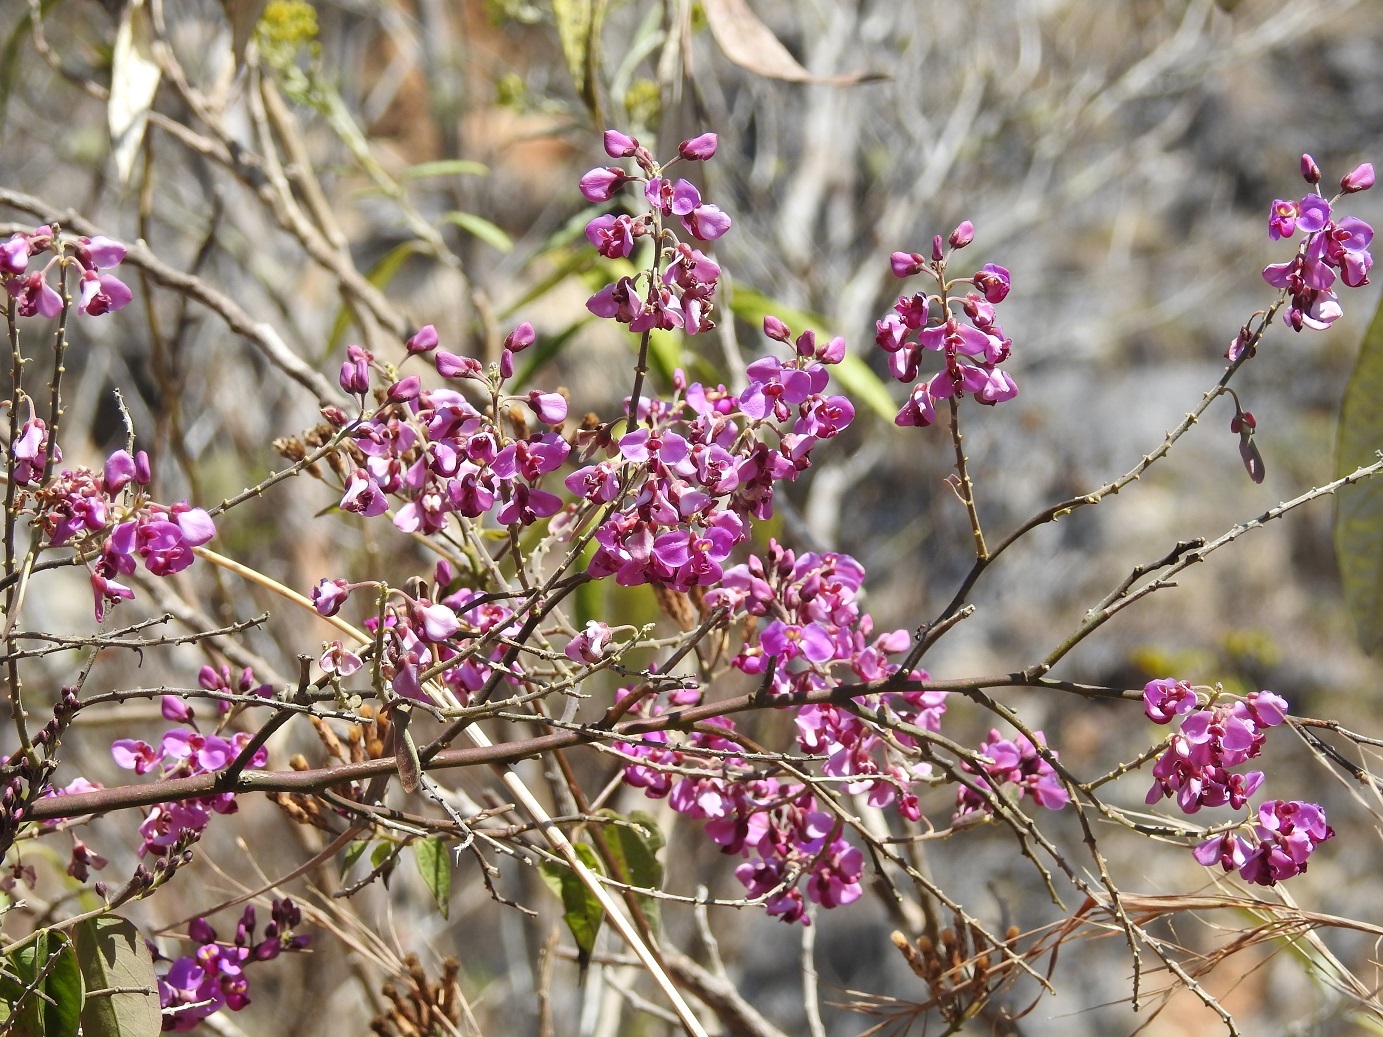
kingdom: Plantae
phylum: Tracheophyta
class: Magnoliopsida
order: Fabales
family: Polygalaceae
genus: Securidaca
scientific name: Securidaca diversifolia
